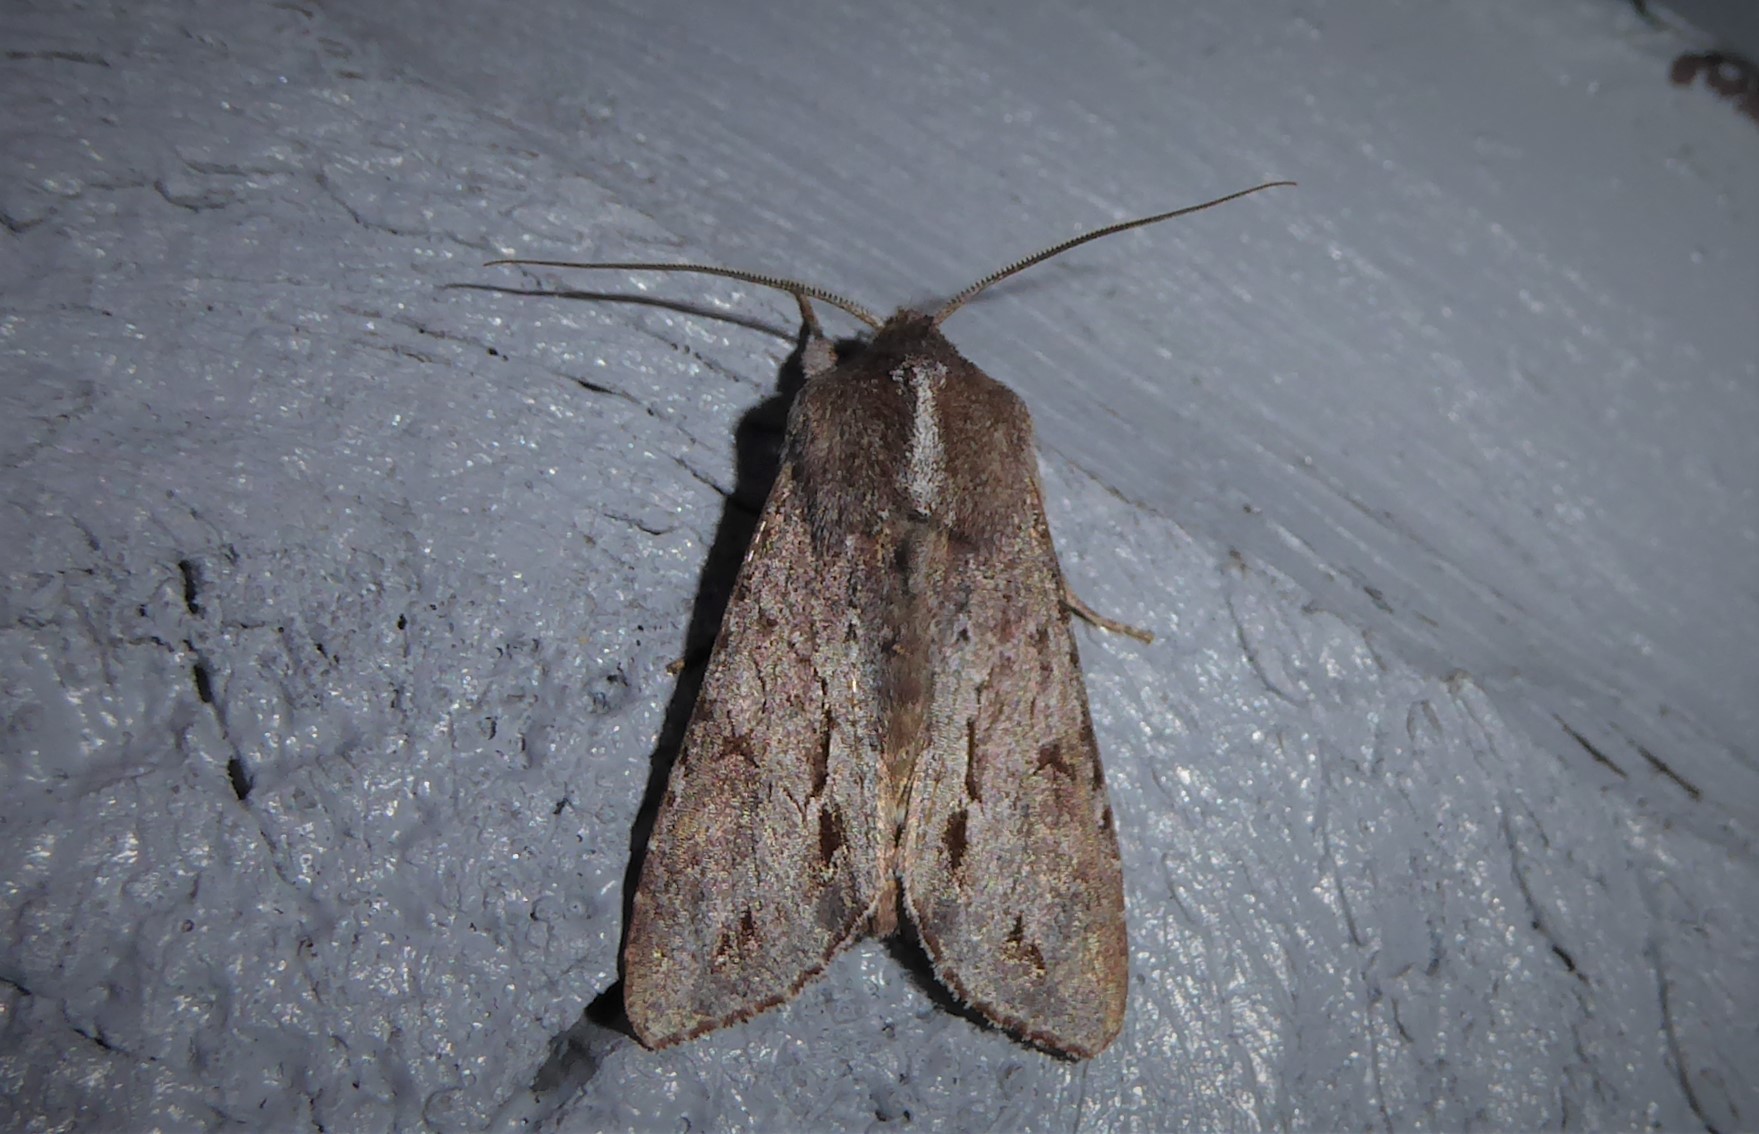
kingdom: Animalia
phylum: Arthropoda
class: Insecta
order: Lepidoptera
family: Noctuidae
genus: Ichneutica
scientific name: Ichneutica
